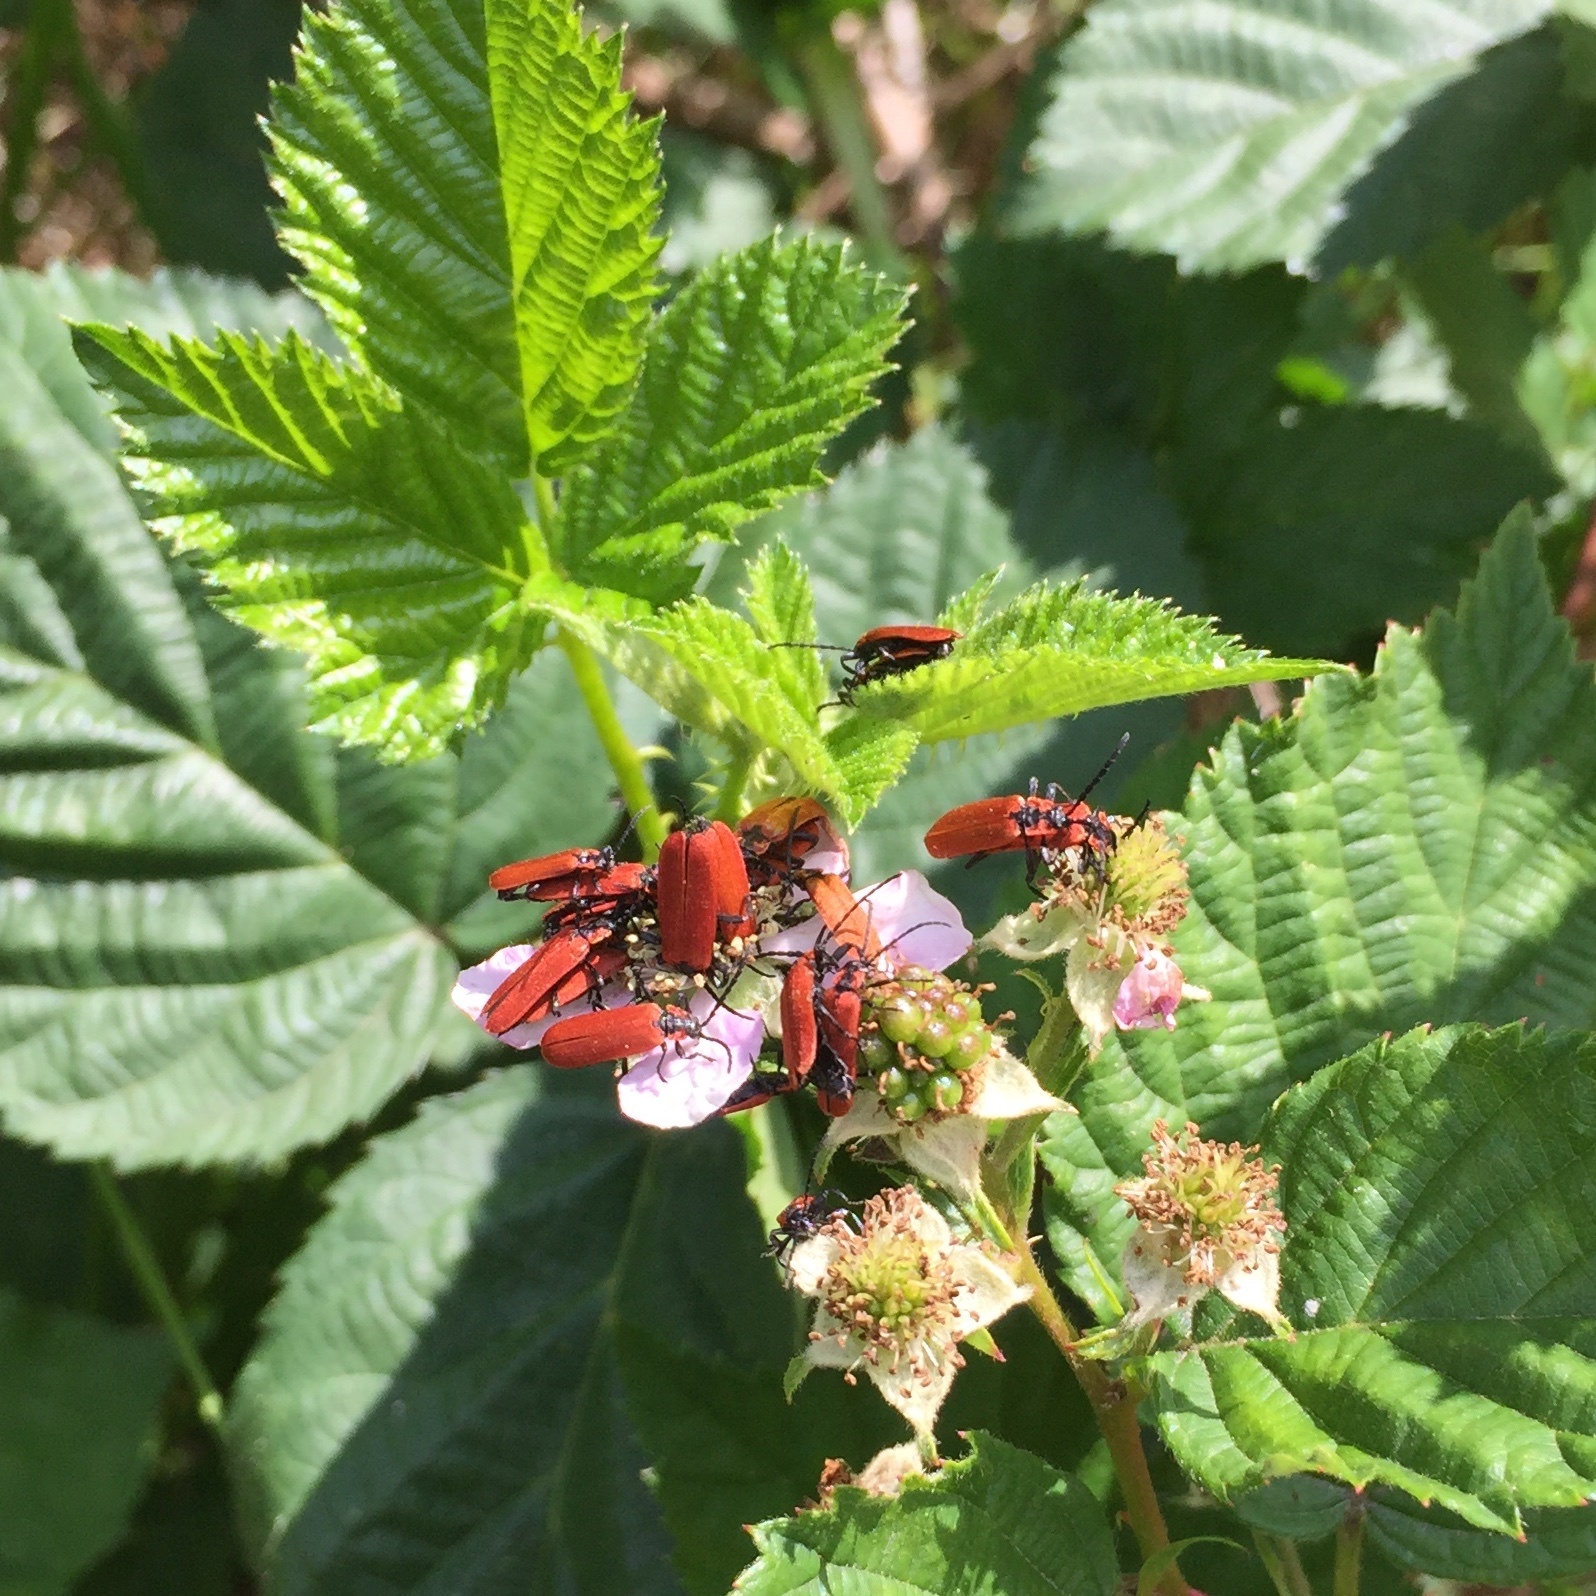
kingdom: Animalia
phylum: Arthropoda
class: Insecta
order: Coleoptera
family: Lycidae
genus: Lygistopterus
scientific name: Lygistopterus sanguineus
